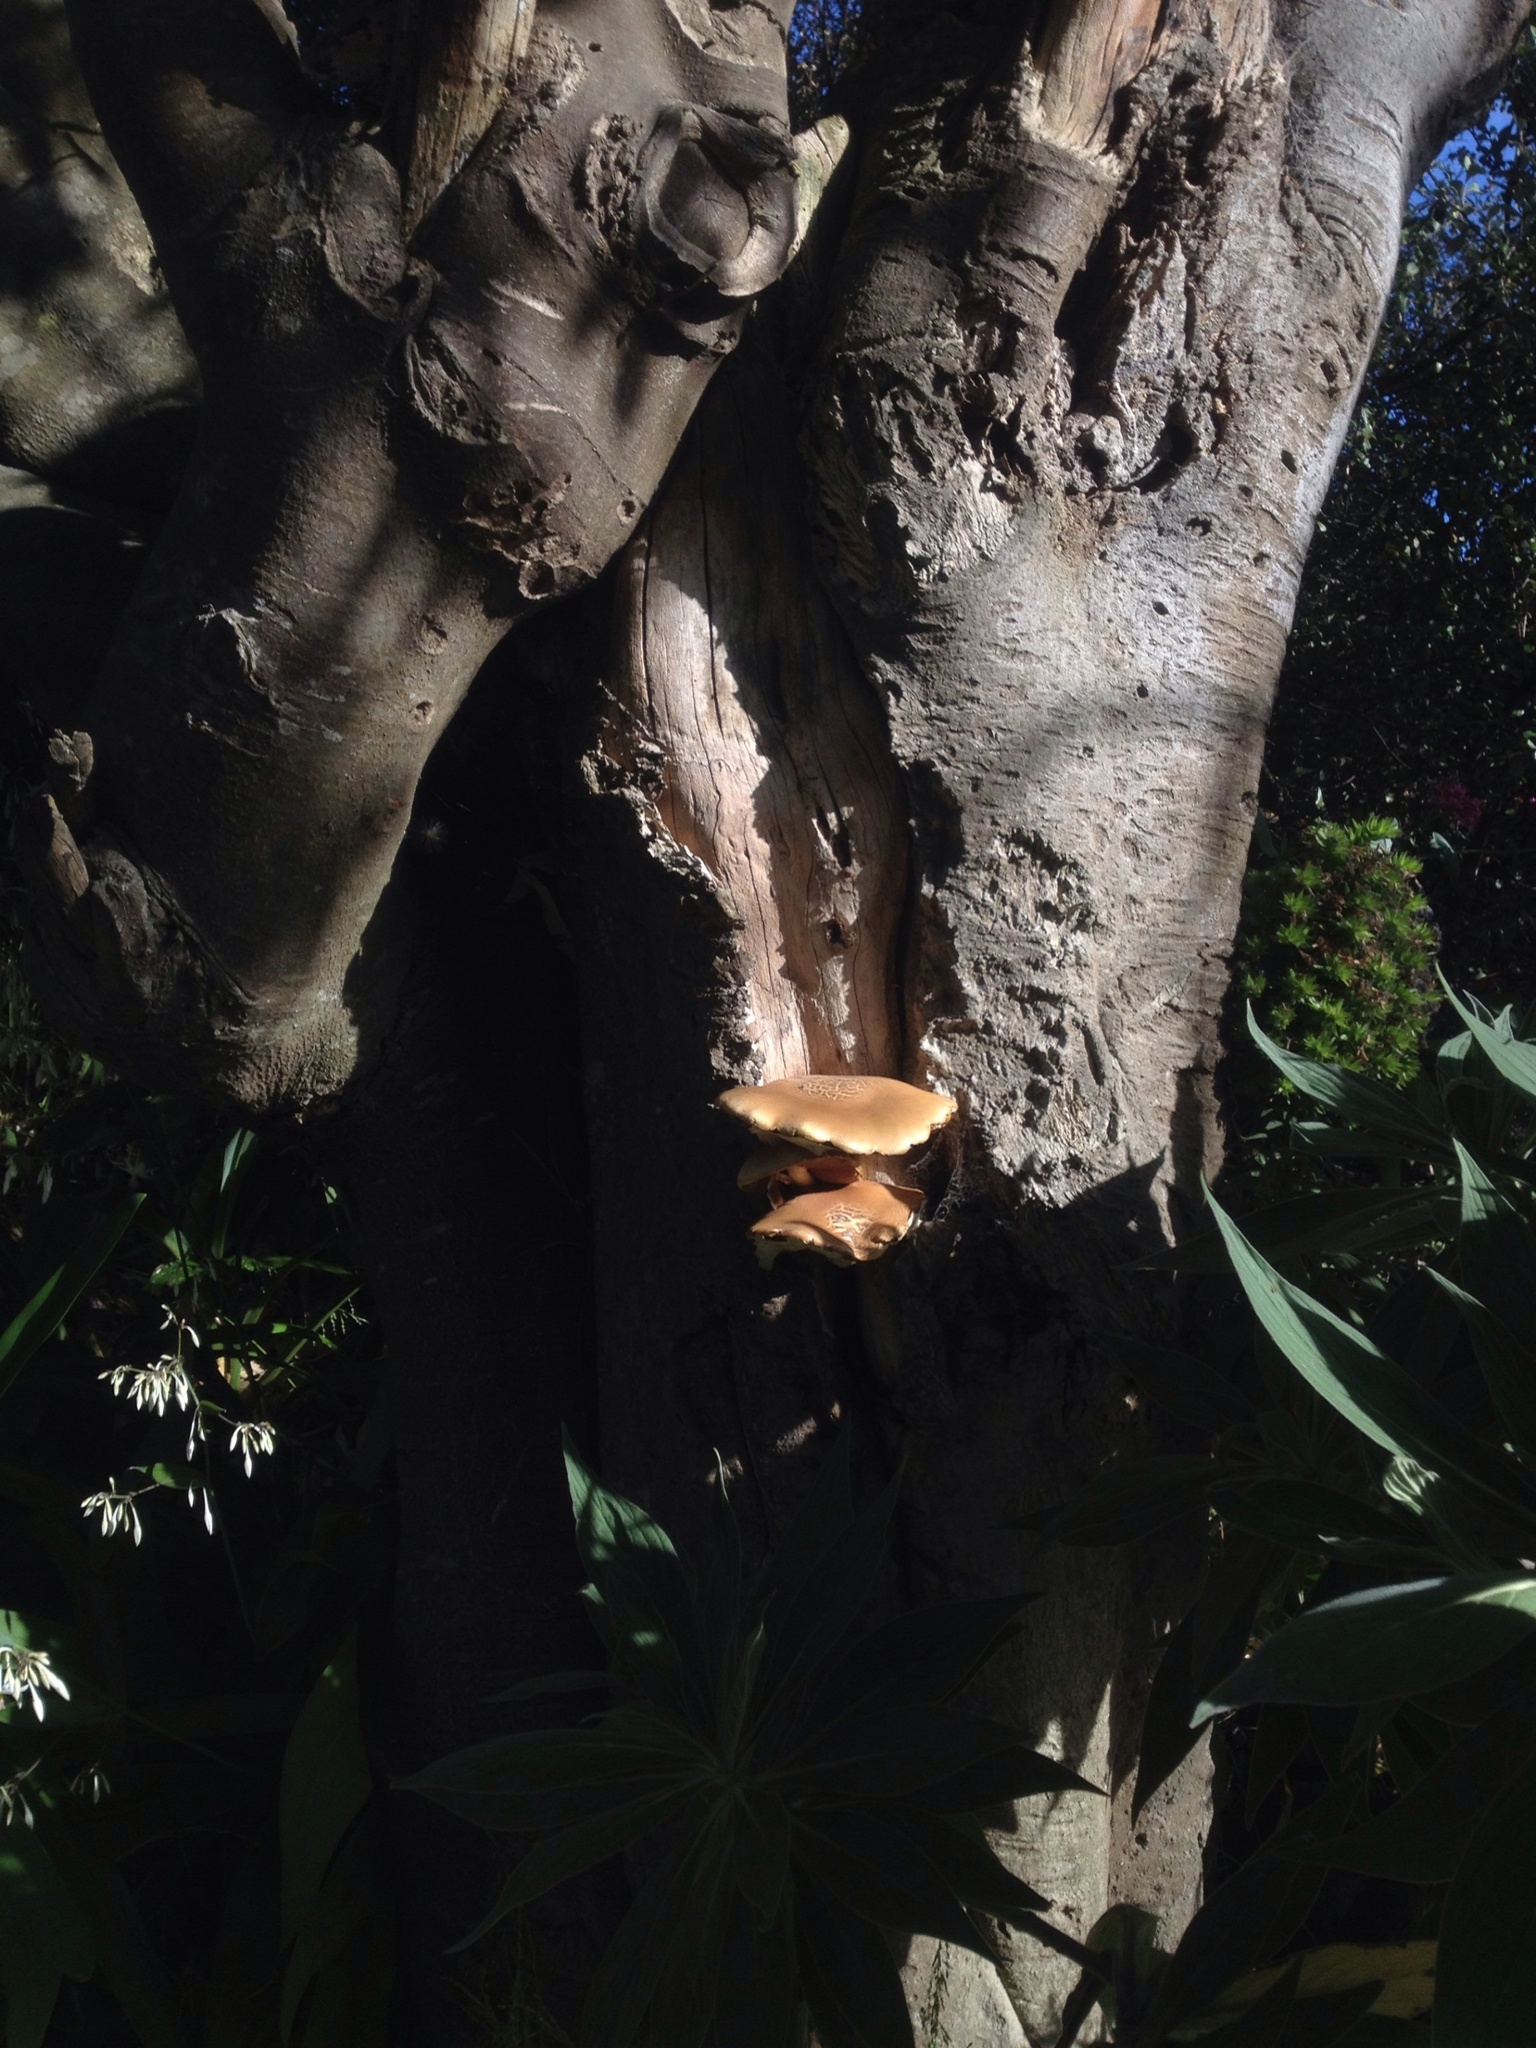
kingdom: Fungi
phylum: Basidiomycota
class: Agaricomycetes
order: Agaricales
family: Tubariaceae
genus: Cyclocybe
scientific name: Cyclocybe parasitica
